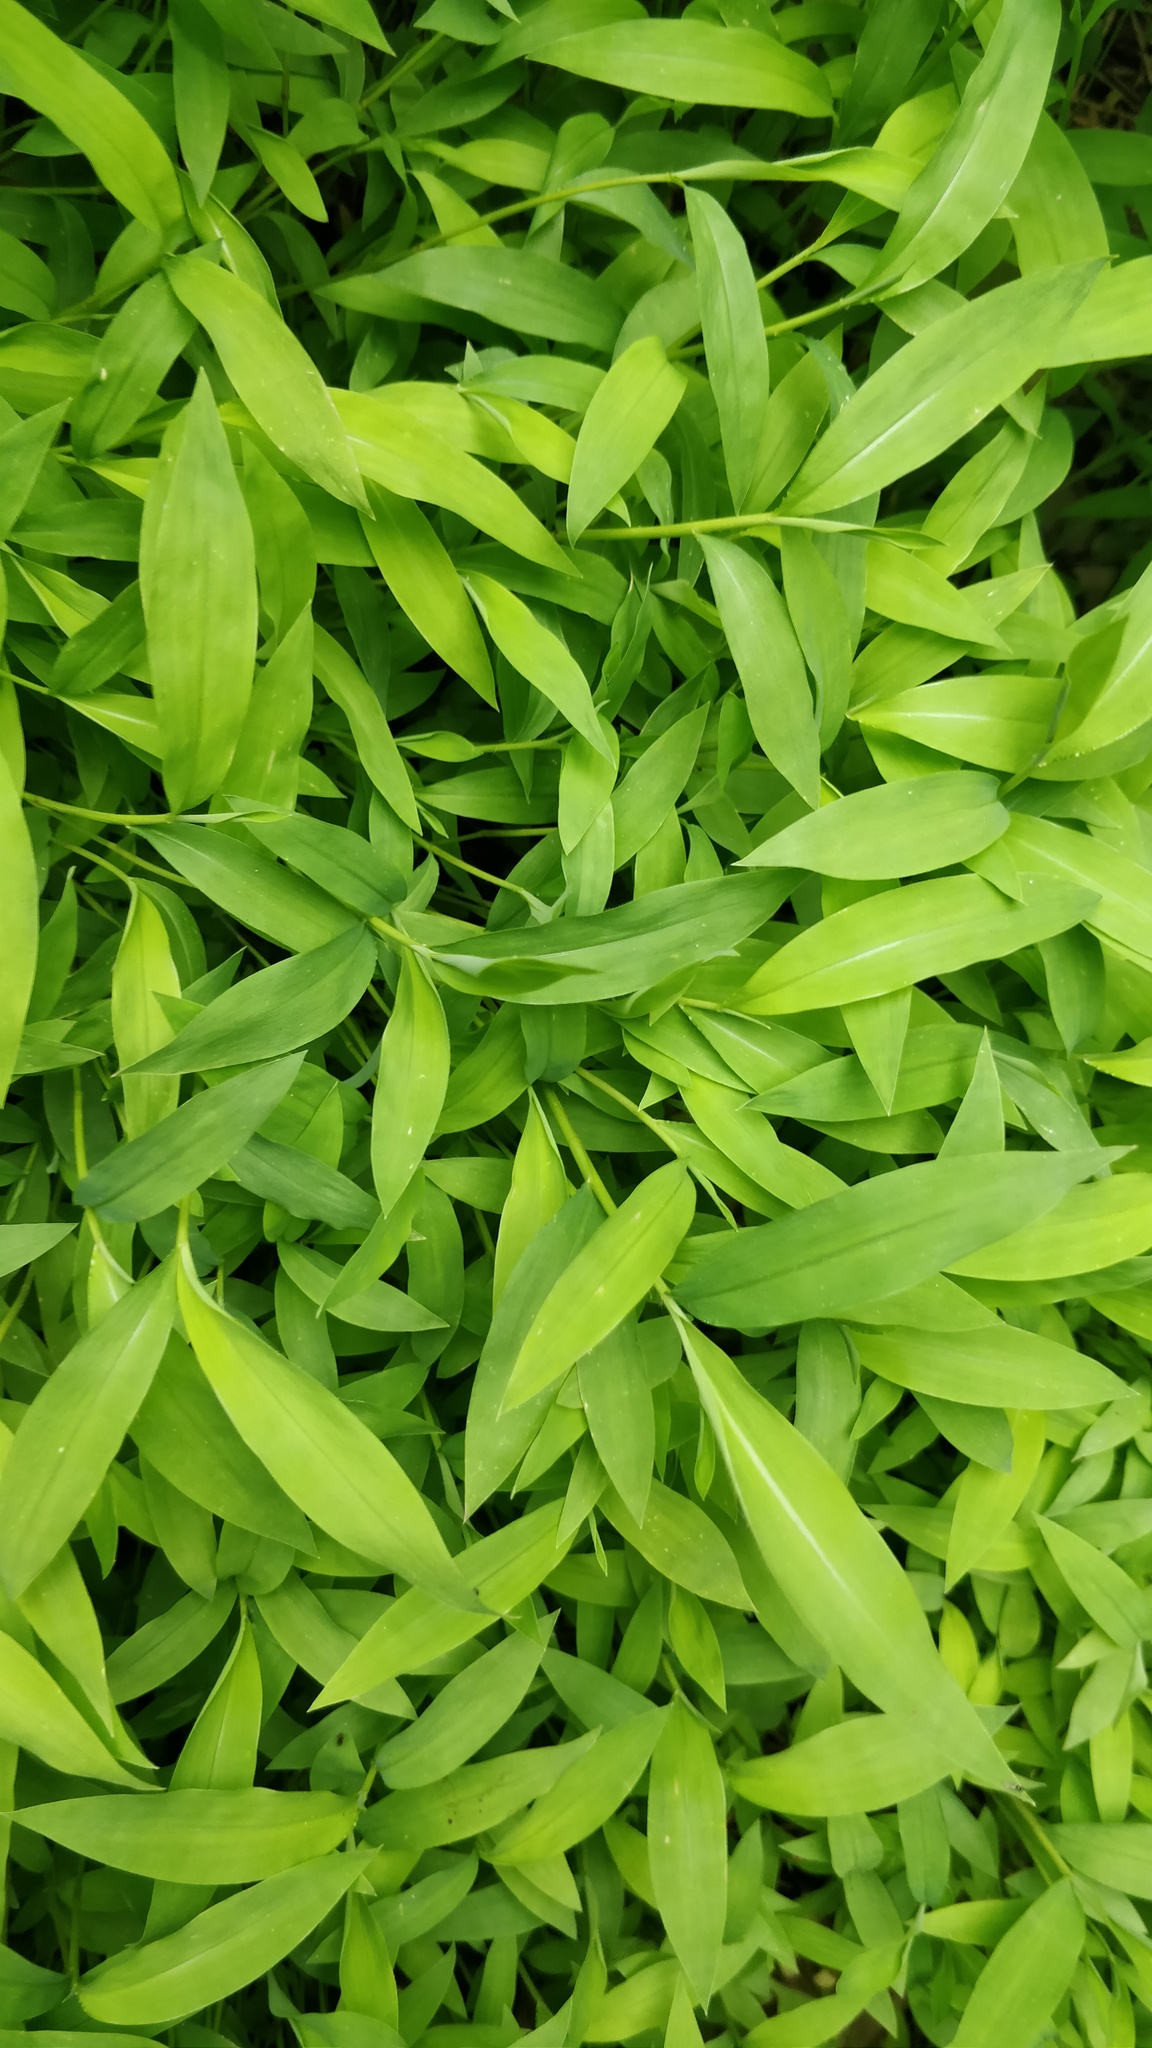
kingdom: Plantae
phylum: Tracheophyta
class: Liliopsida
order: Poales
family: Poaceae
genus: Microstegium
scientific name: Microstegium vimineum
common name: Japanese stiltgrass
